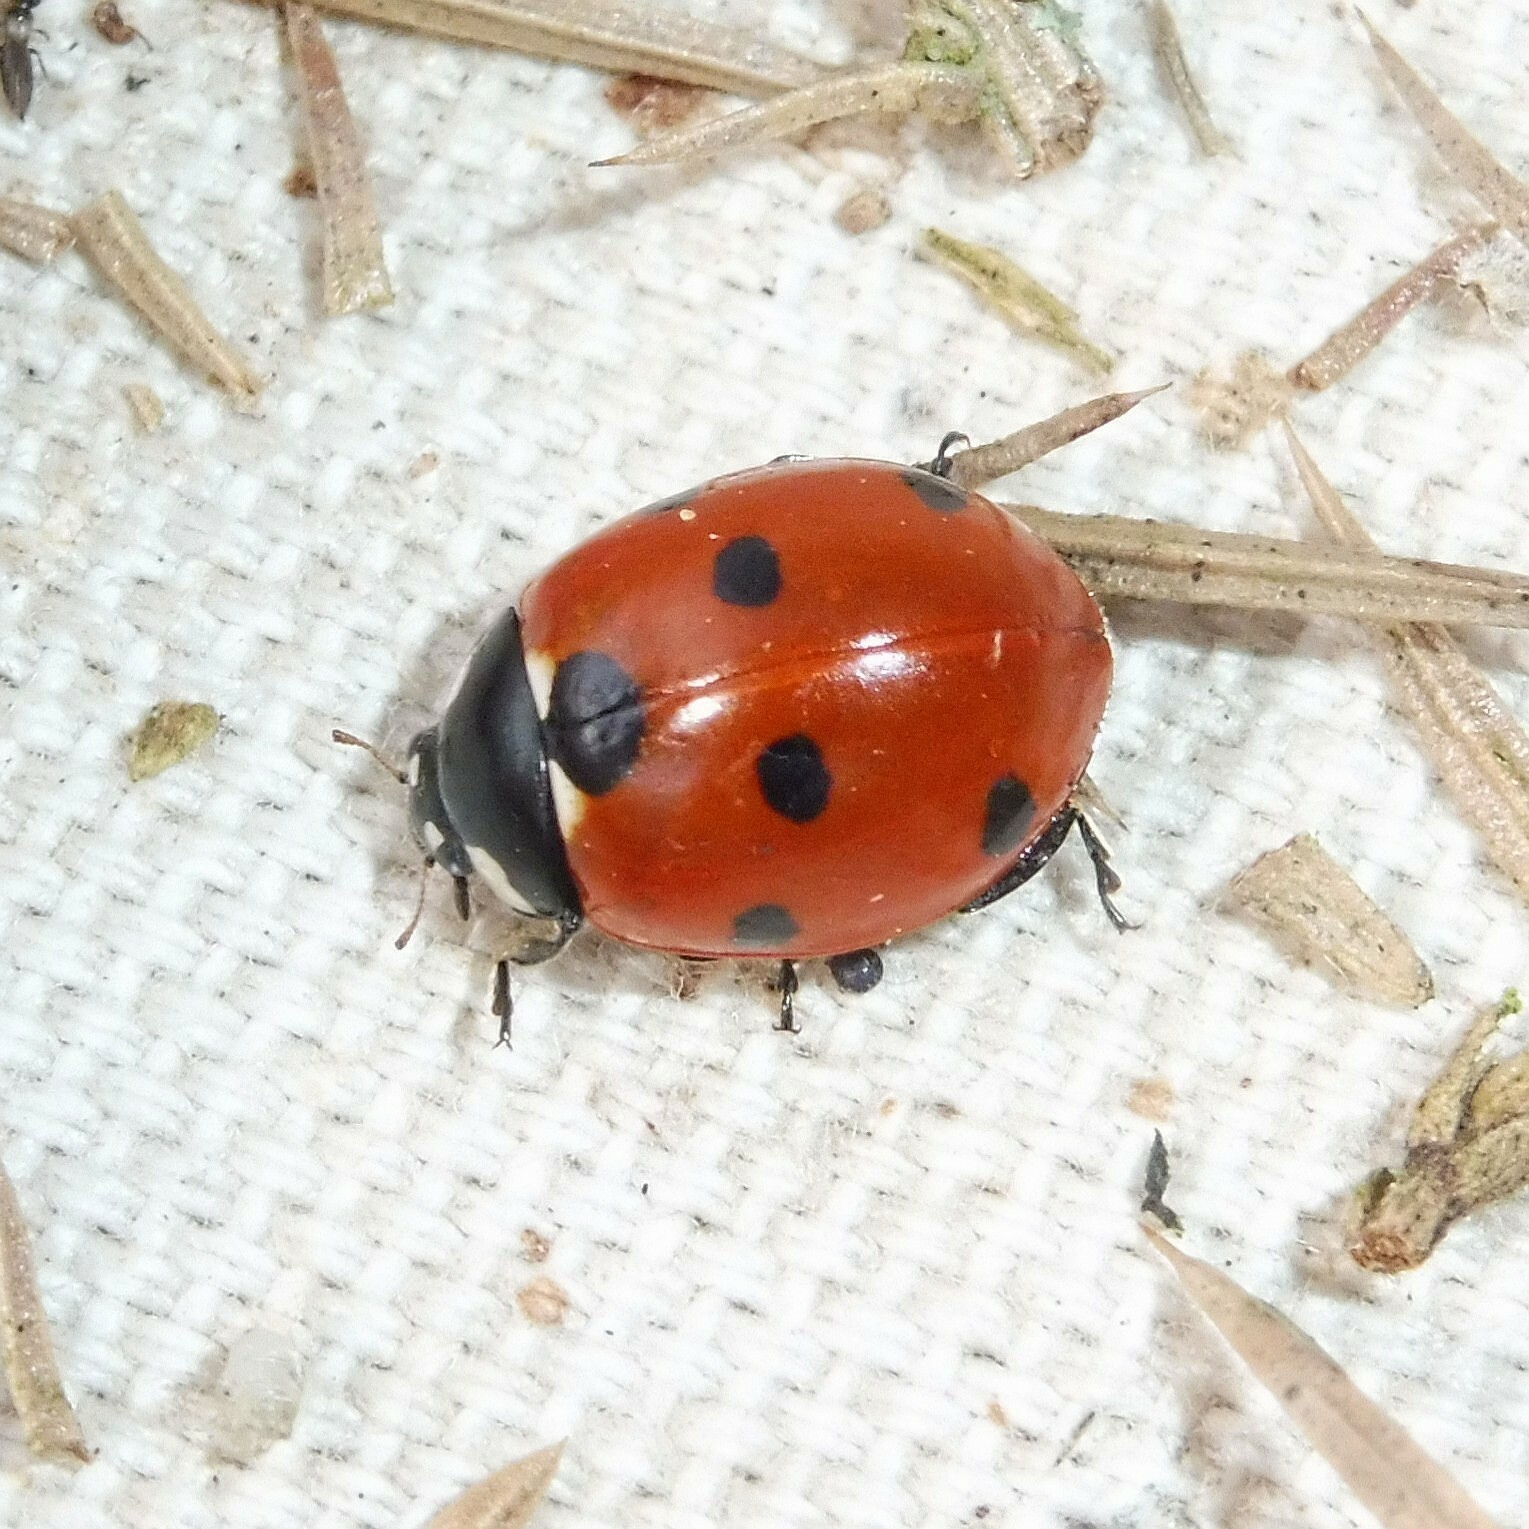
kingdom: Animalia
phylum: Arthropoda
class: Insecta
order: Coleoptera
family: Coccinellidae
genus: Coccinella
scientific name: Coccinella septempunctata
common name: Sevenspotted lady beetle
